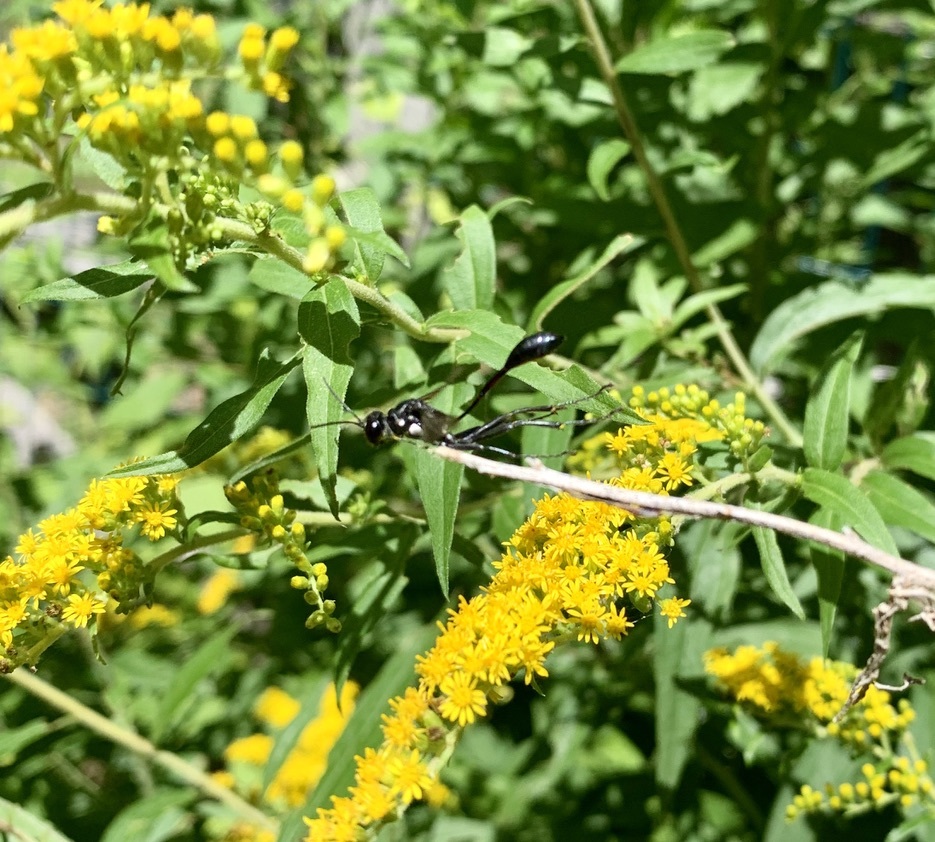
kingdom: Animalia
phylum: Arthropoda
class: Insecta
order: Hymenoptera
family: Sphecidae
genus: Eremnophila
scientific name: Eremnophila aureonotata
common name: Gold-marked thread-waisted wasp
